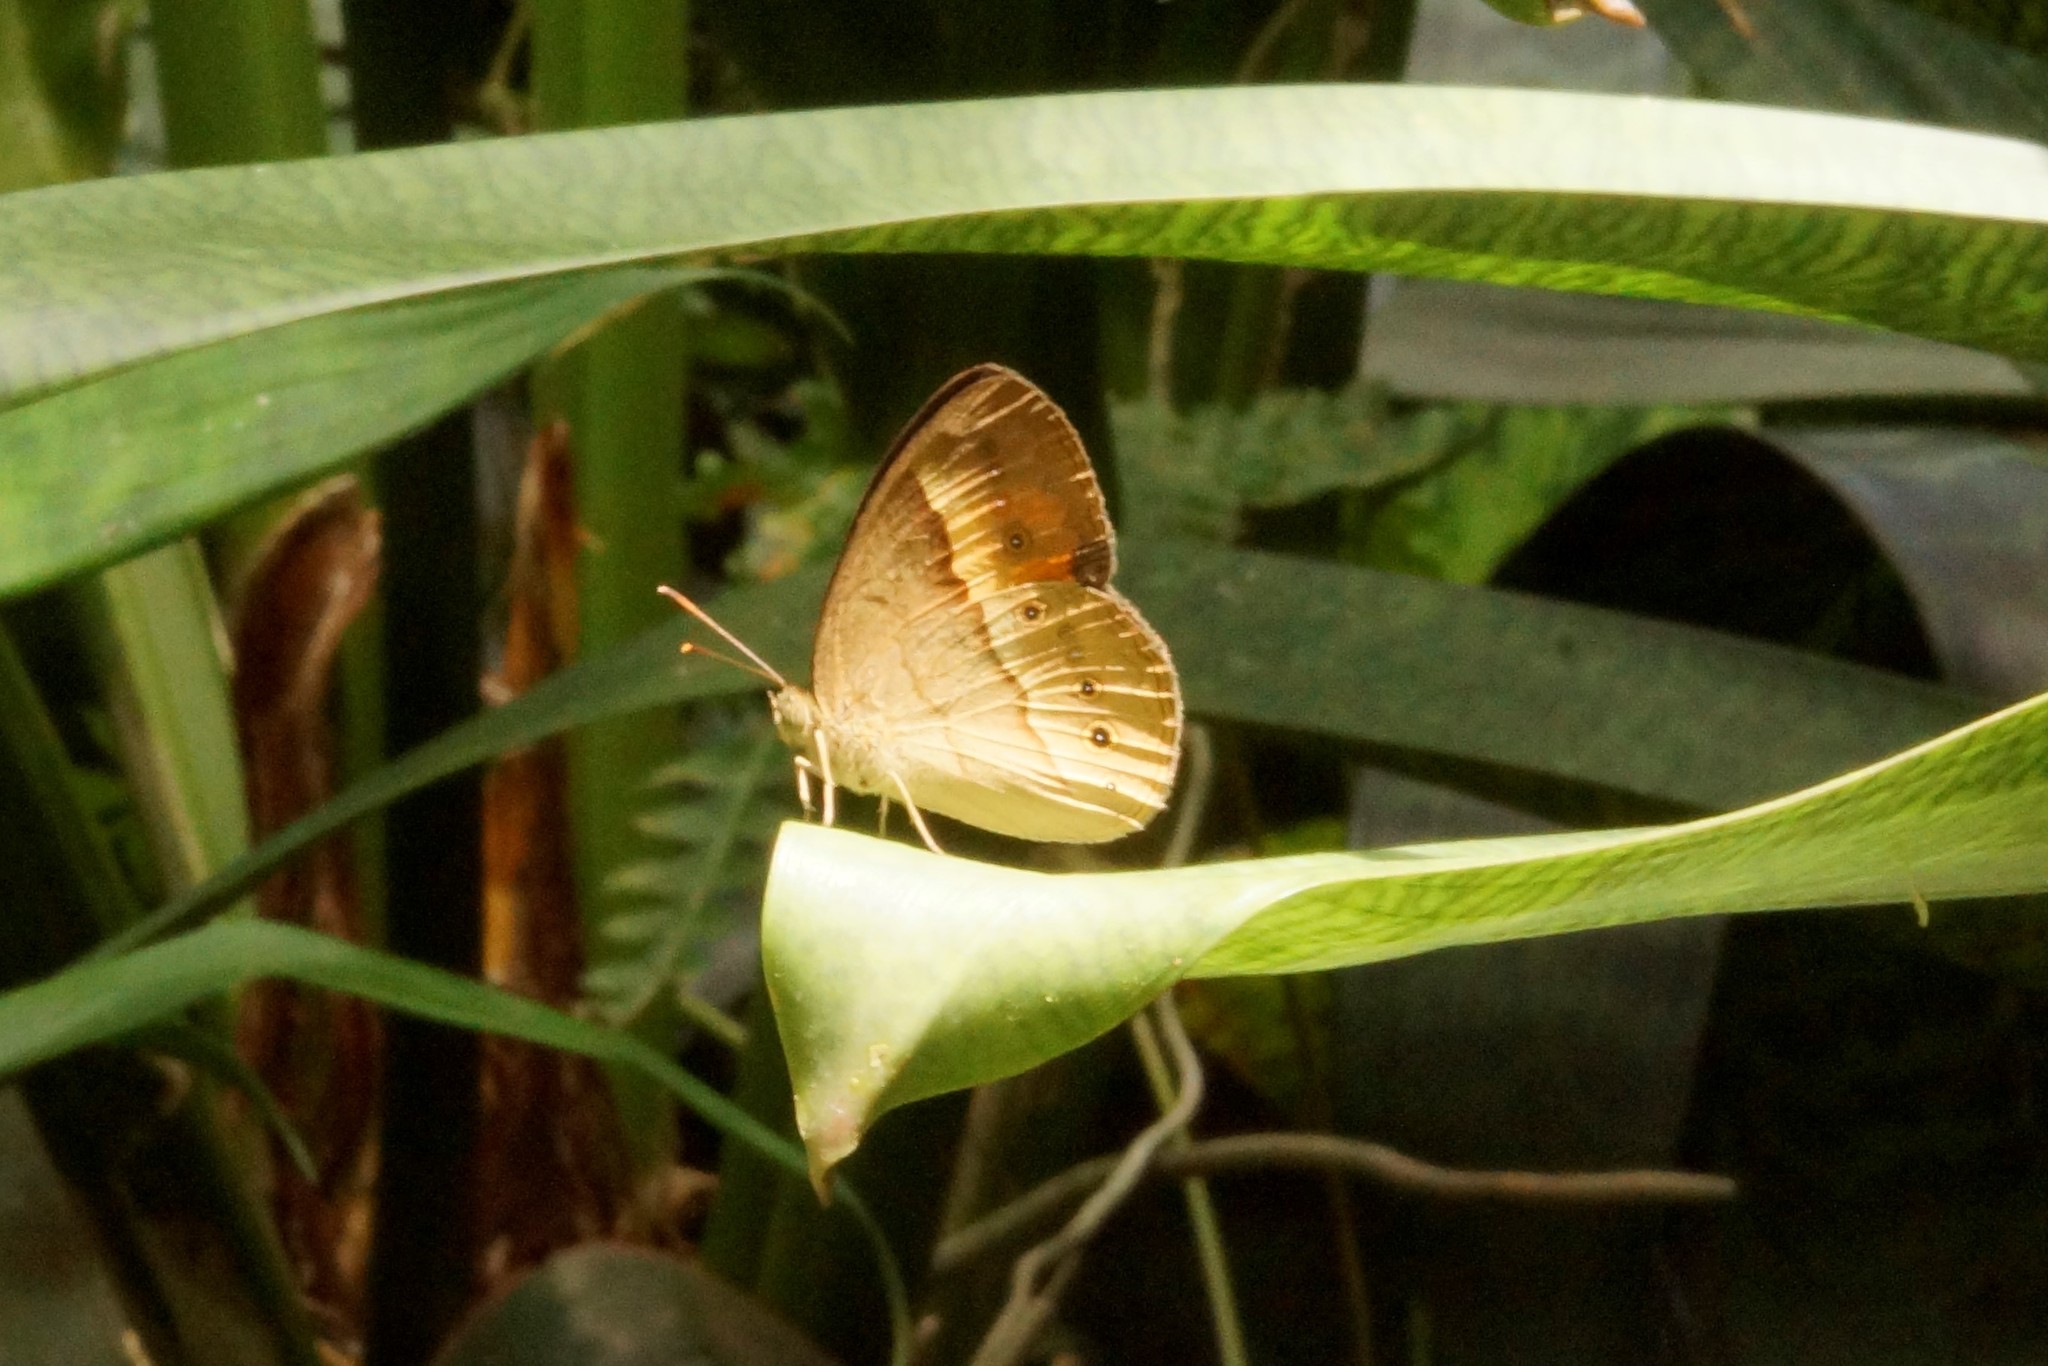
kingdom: Animalia
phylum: Arthropoda
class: Insecta
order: Lepidoptera
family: Nymphalidae
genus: Mycalesis
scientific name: Mycalesis terminus
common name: Orange bushbrown
